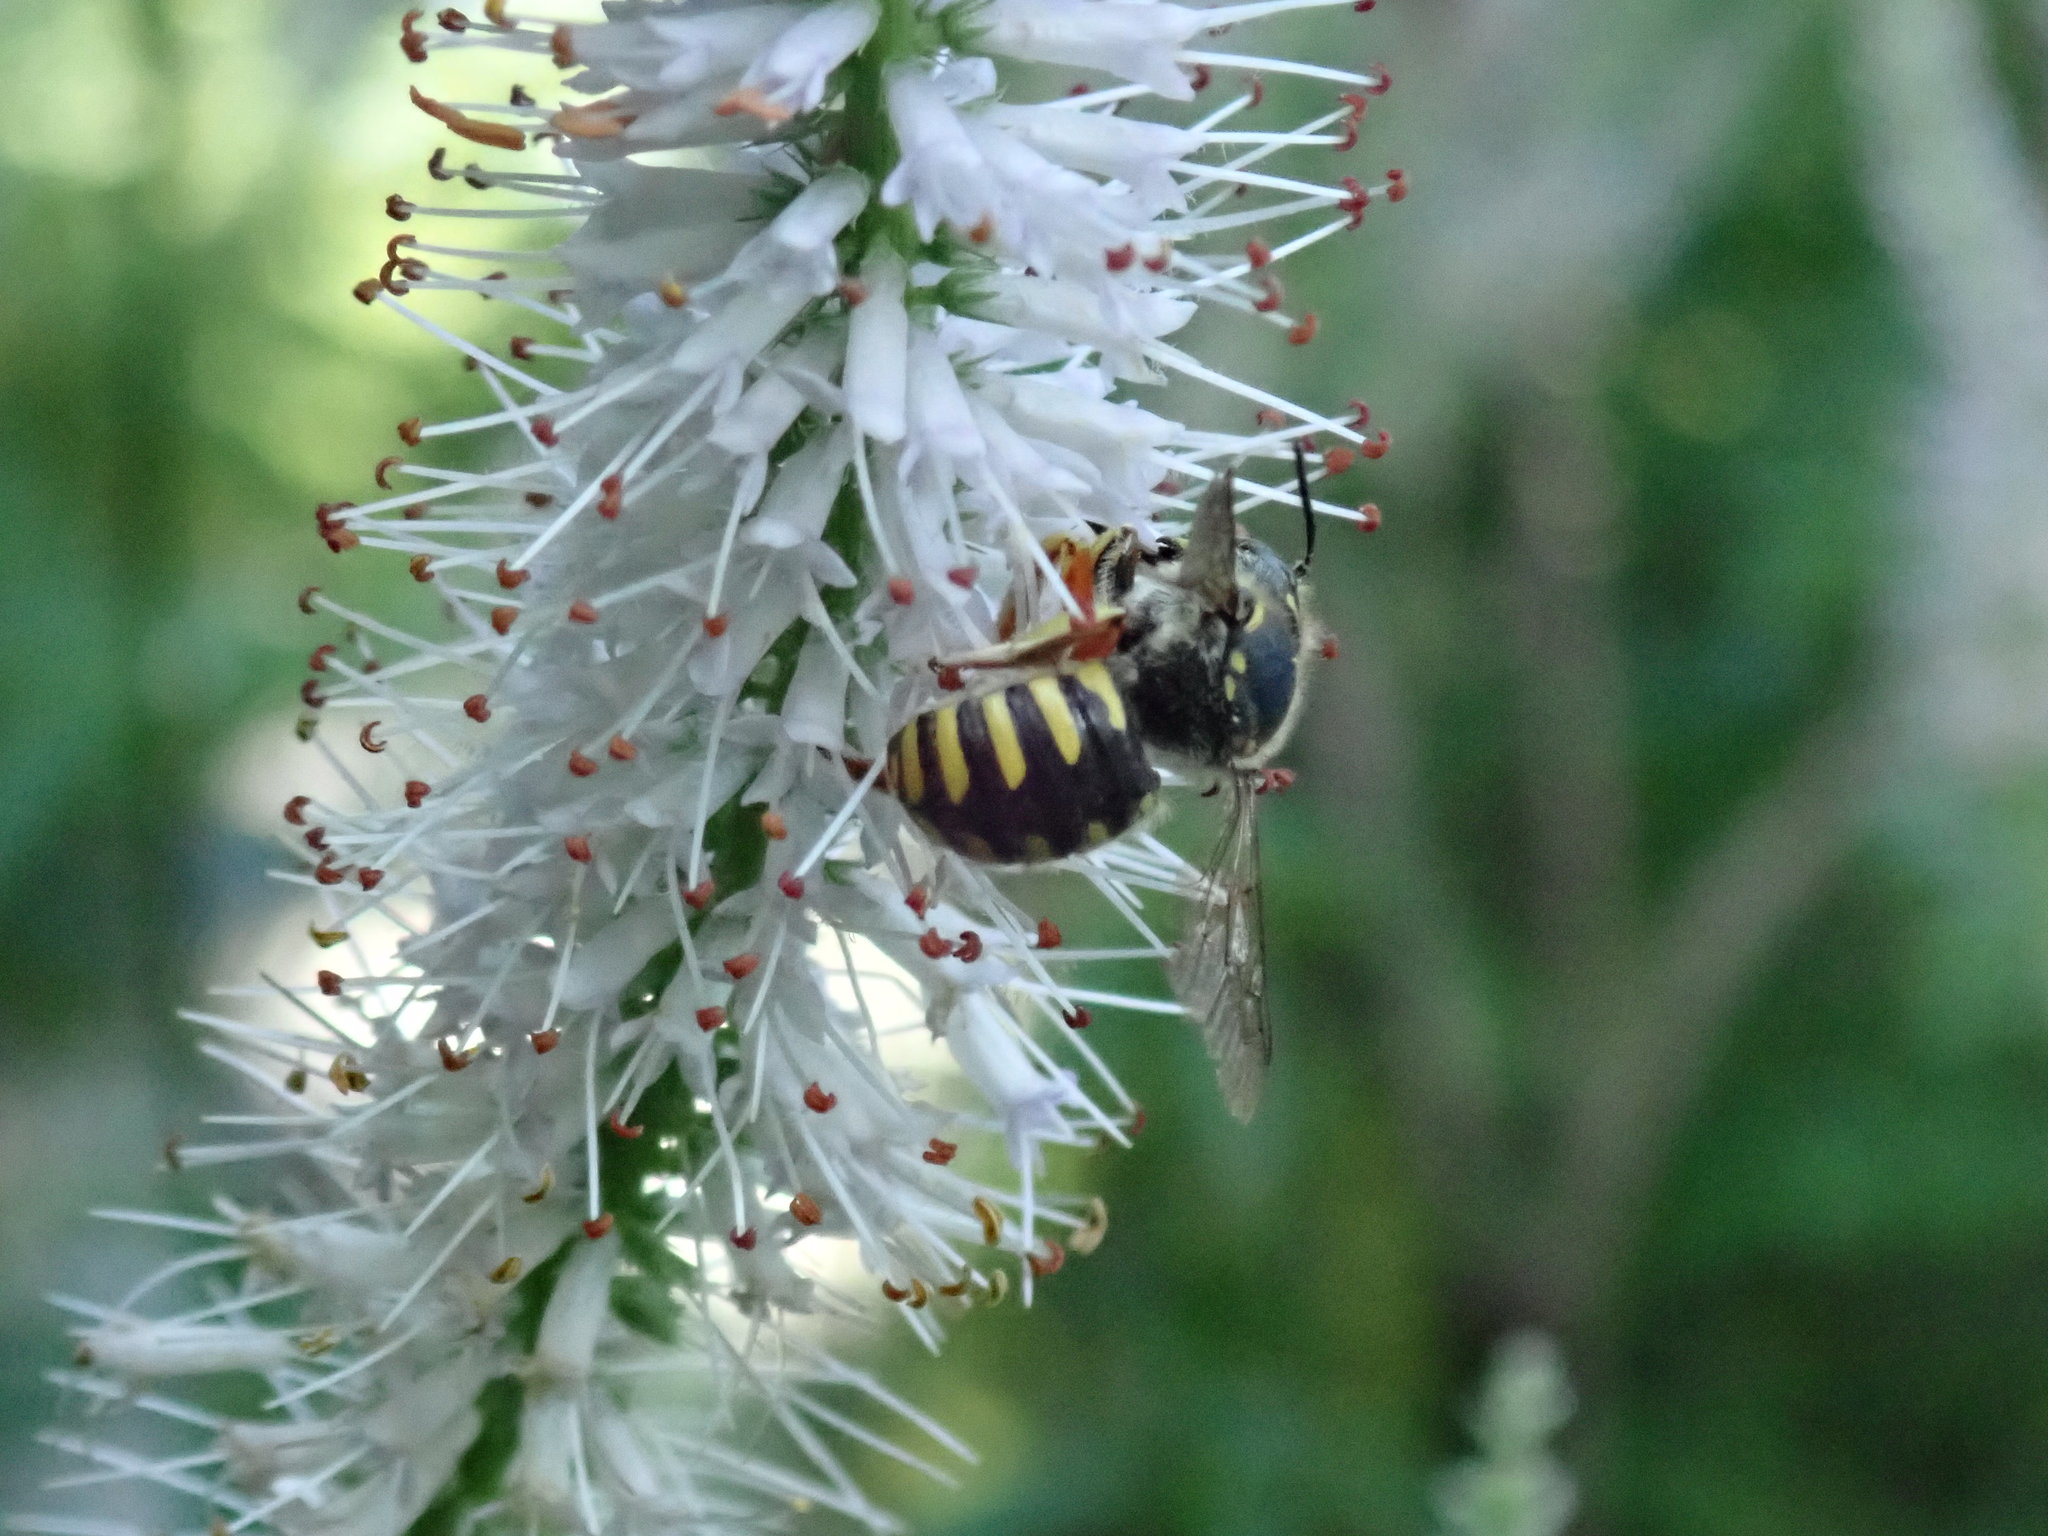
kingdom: Animalia
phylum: Arthropoda
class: Insecta
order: Hymenoptera
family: Megachilidae
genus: Anthidium
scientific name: Anthidium manicatum
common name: Wool carder bee
